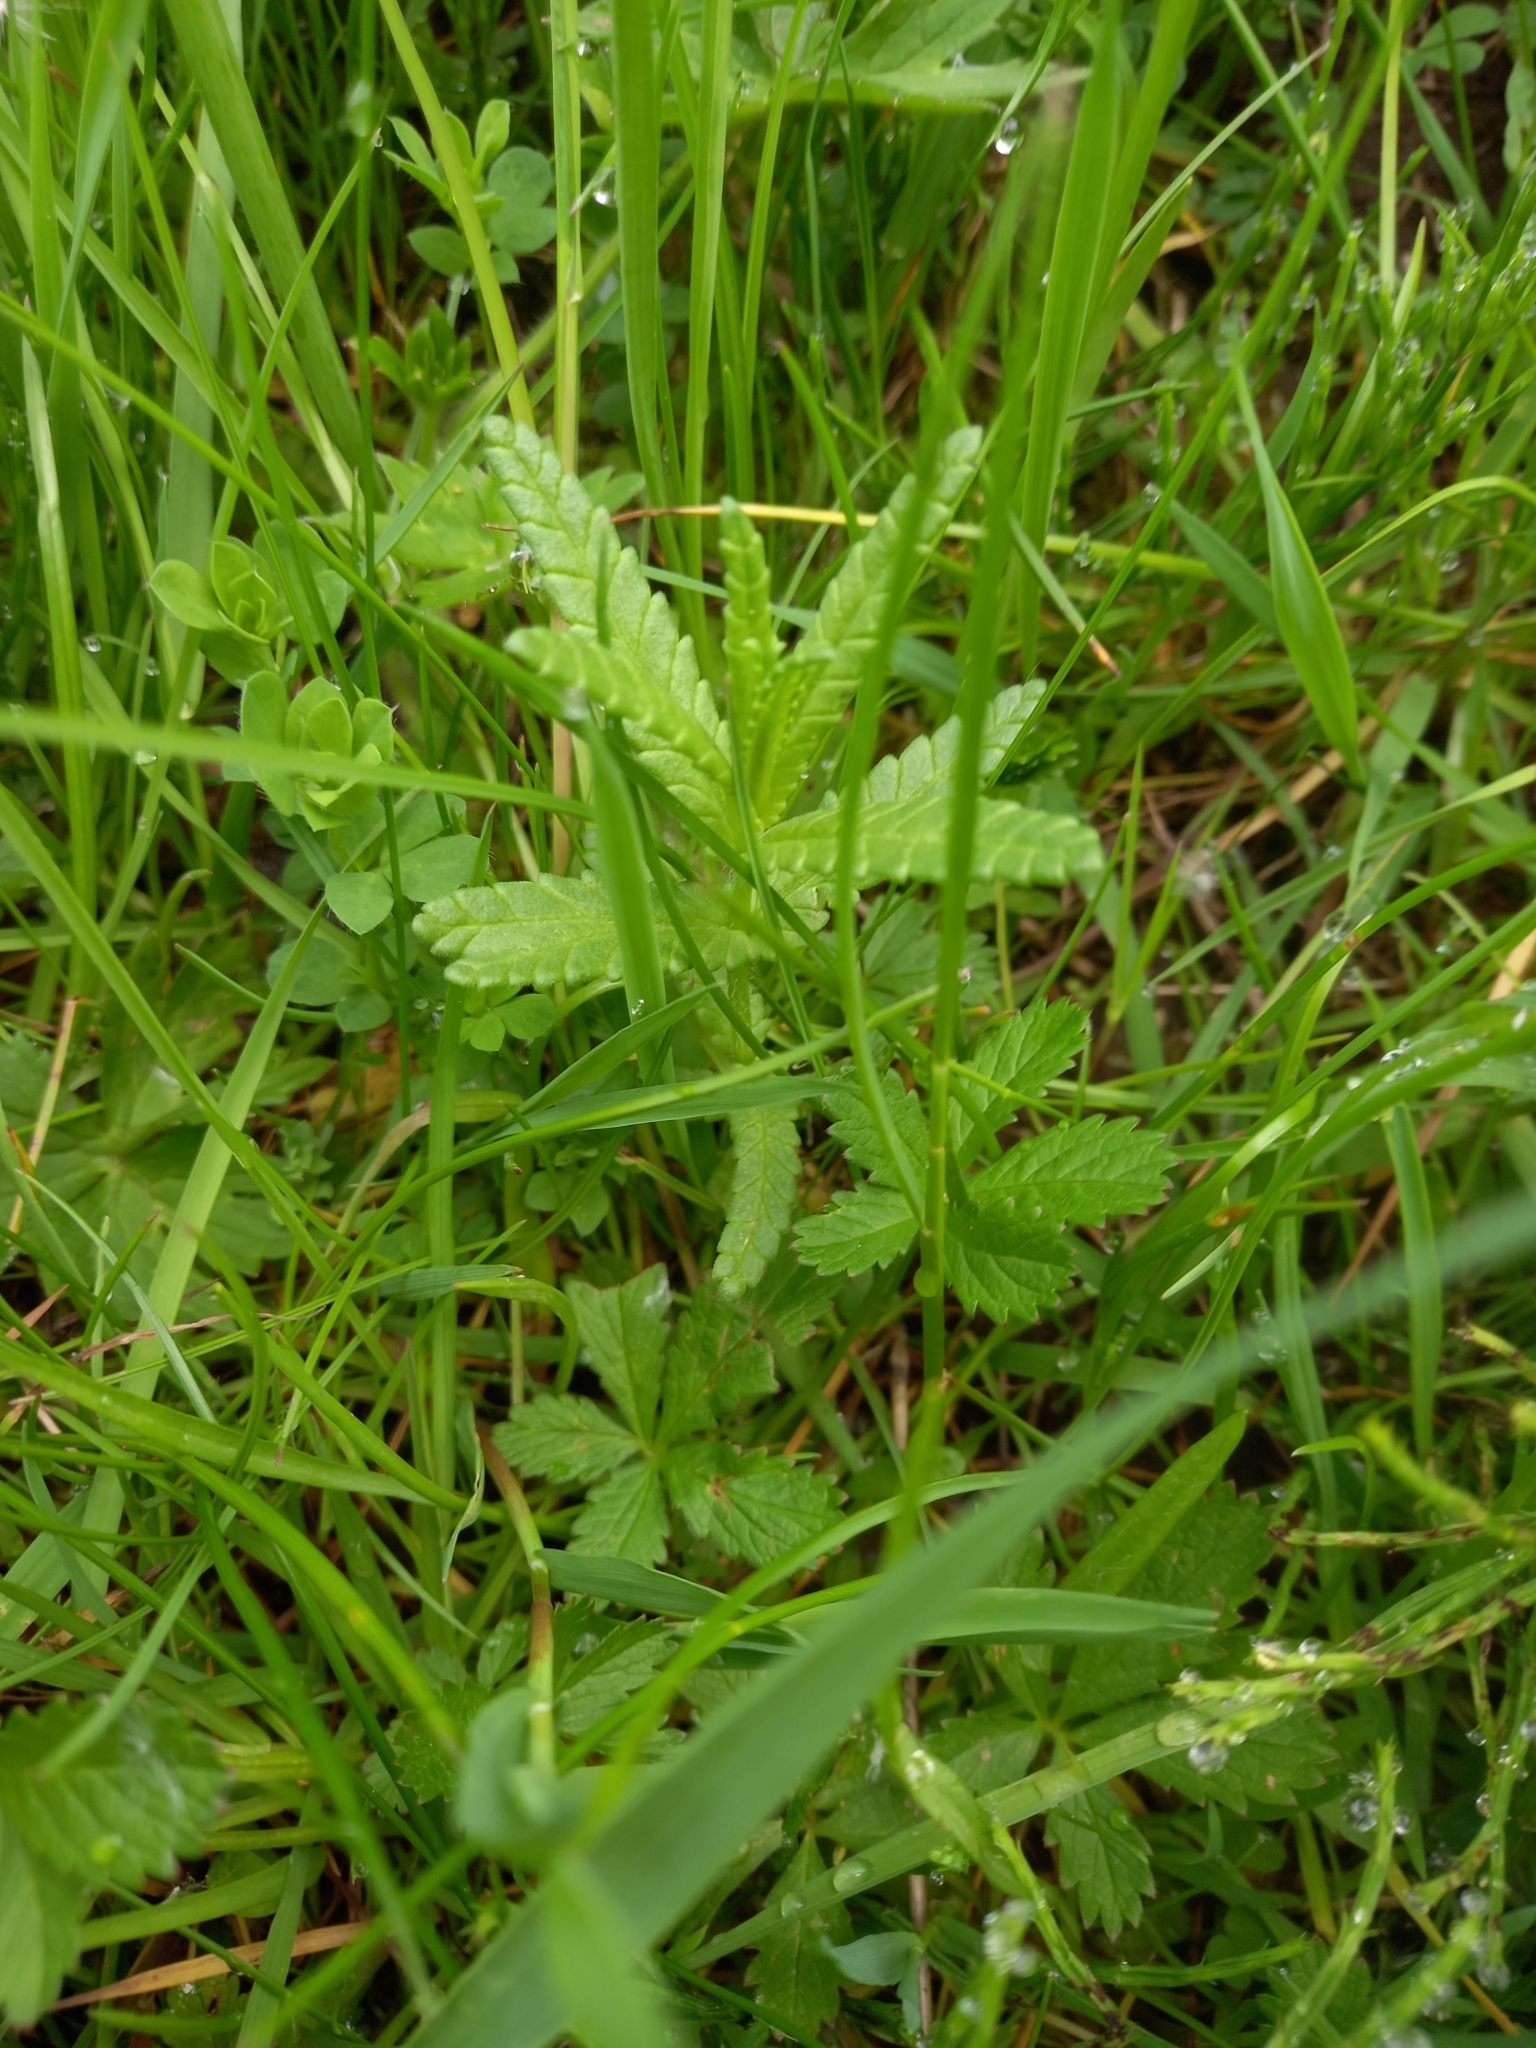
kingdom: Plantae
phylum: Tracheophyta
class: Magnoliopsida
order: Lamiales
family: Orobanchaceae
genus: Rhinanthus
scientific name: Rhinanthus minor
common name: Yellow-rattle
